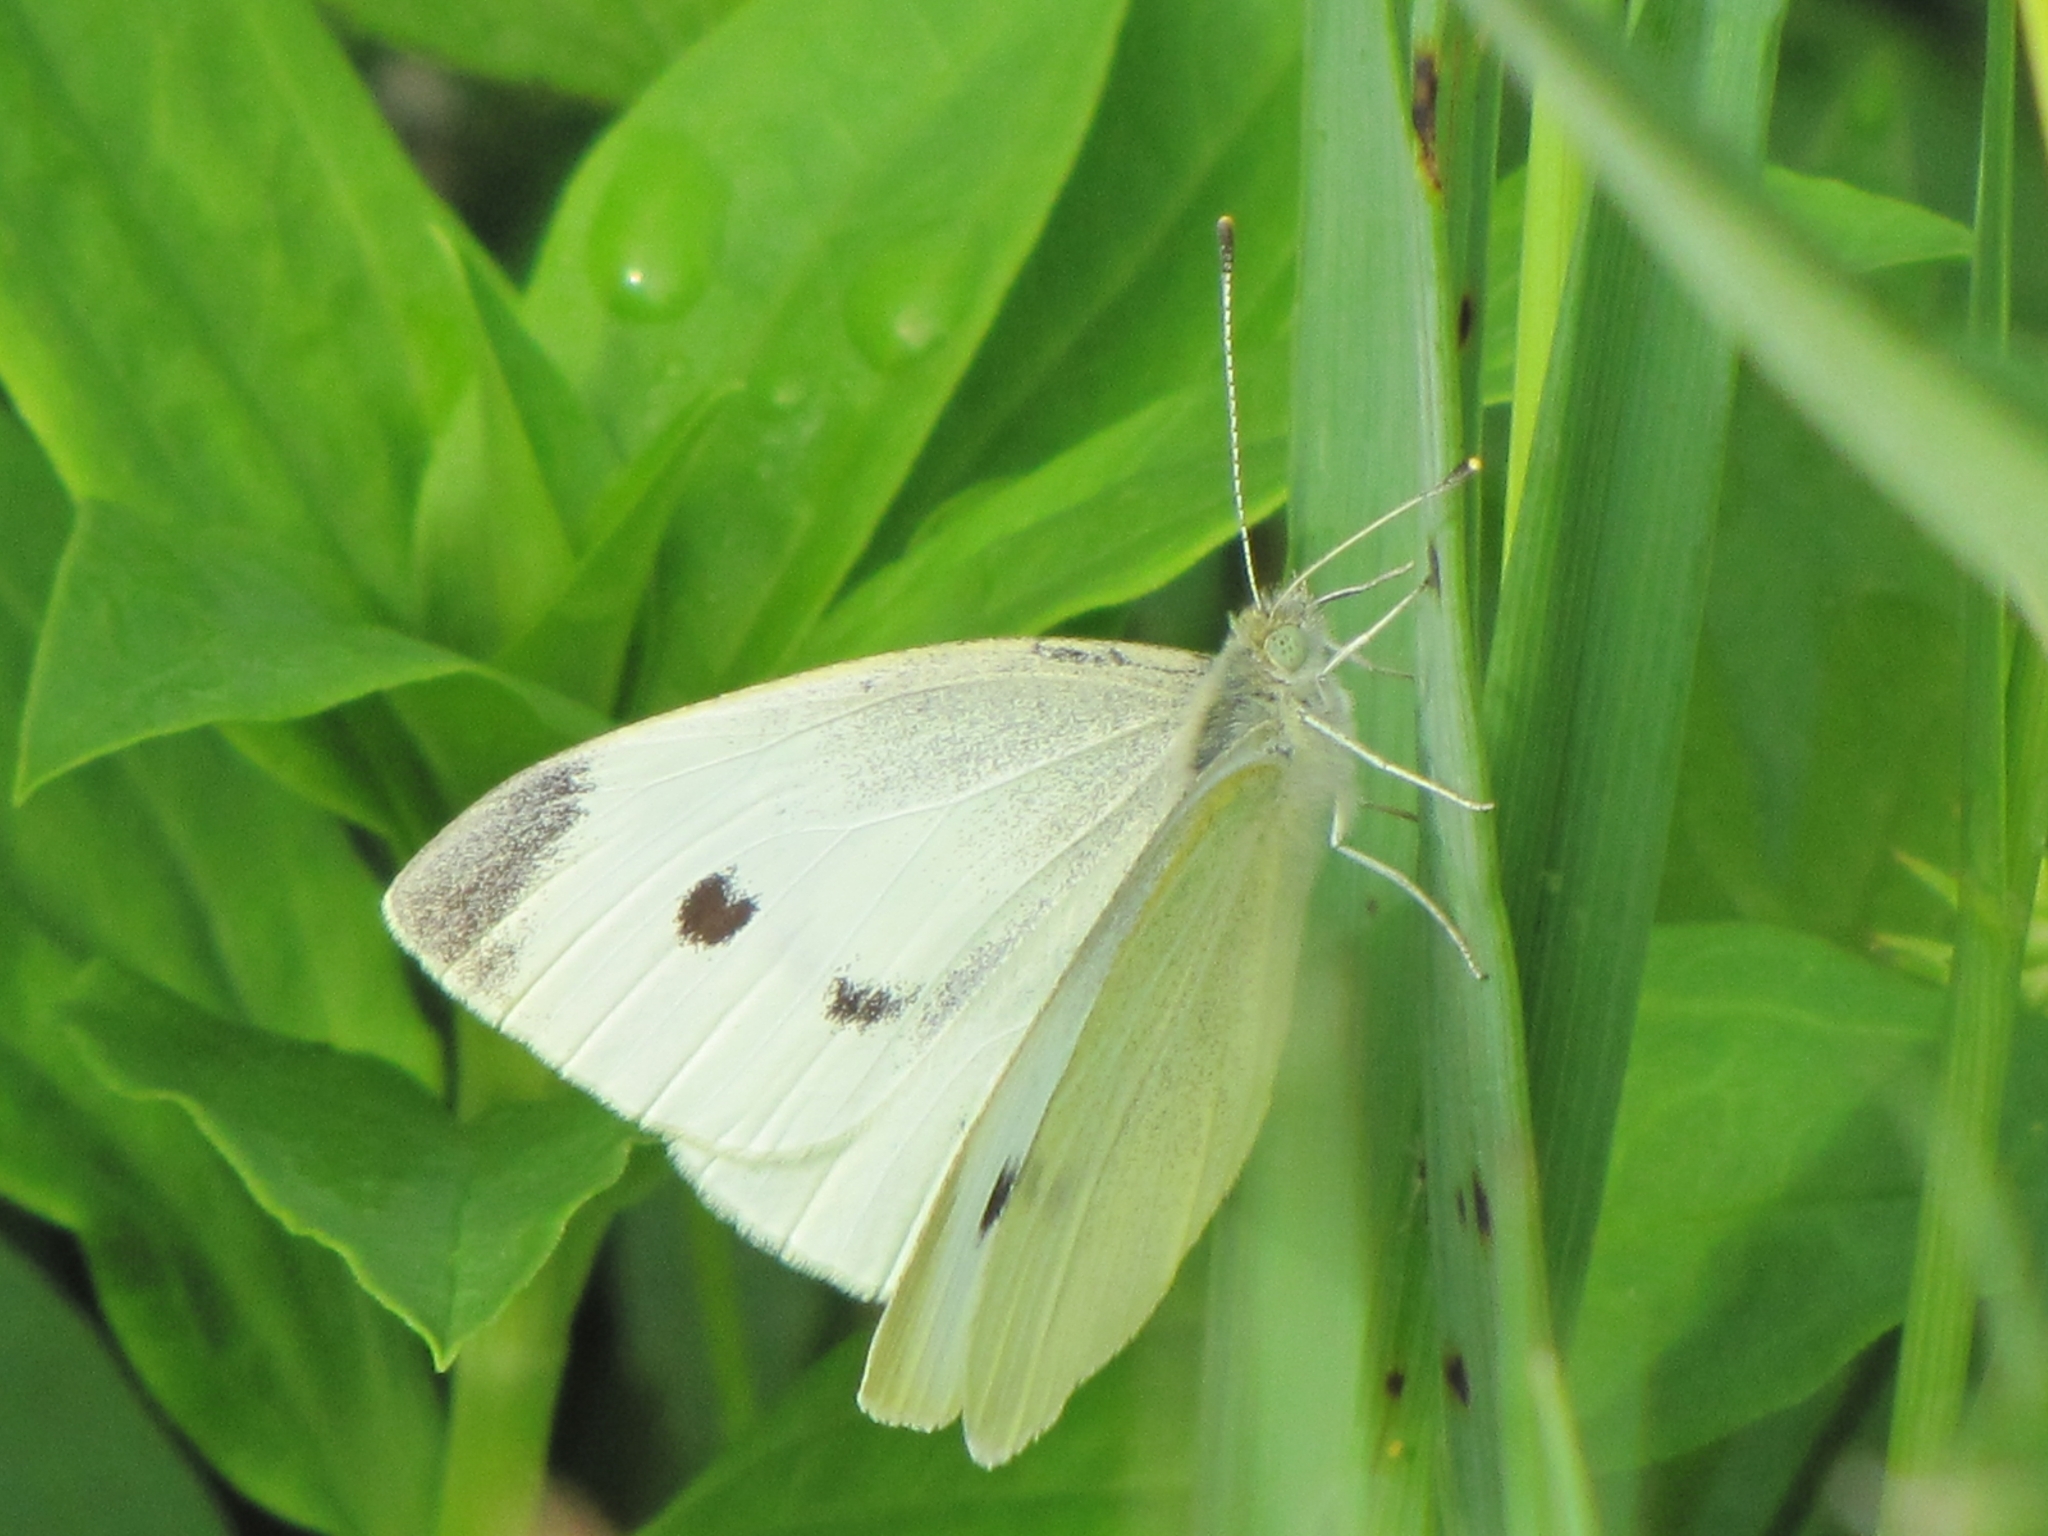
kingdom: Animalia
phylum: Arthropoda
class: Insecta
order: Lepidoptera
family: Pieridae
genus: Pieris
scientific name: Pieris rapae
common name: Small white
